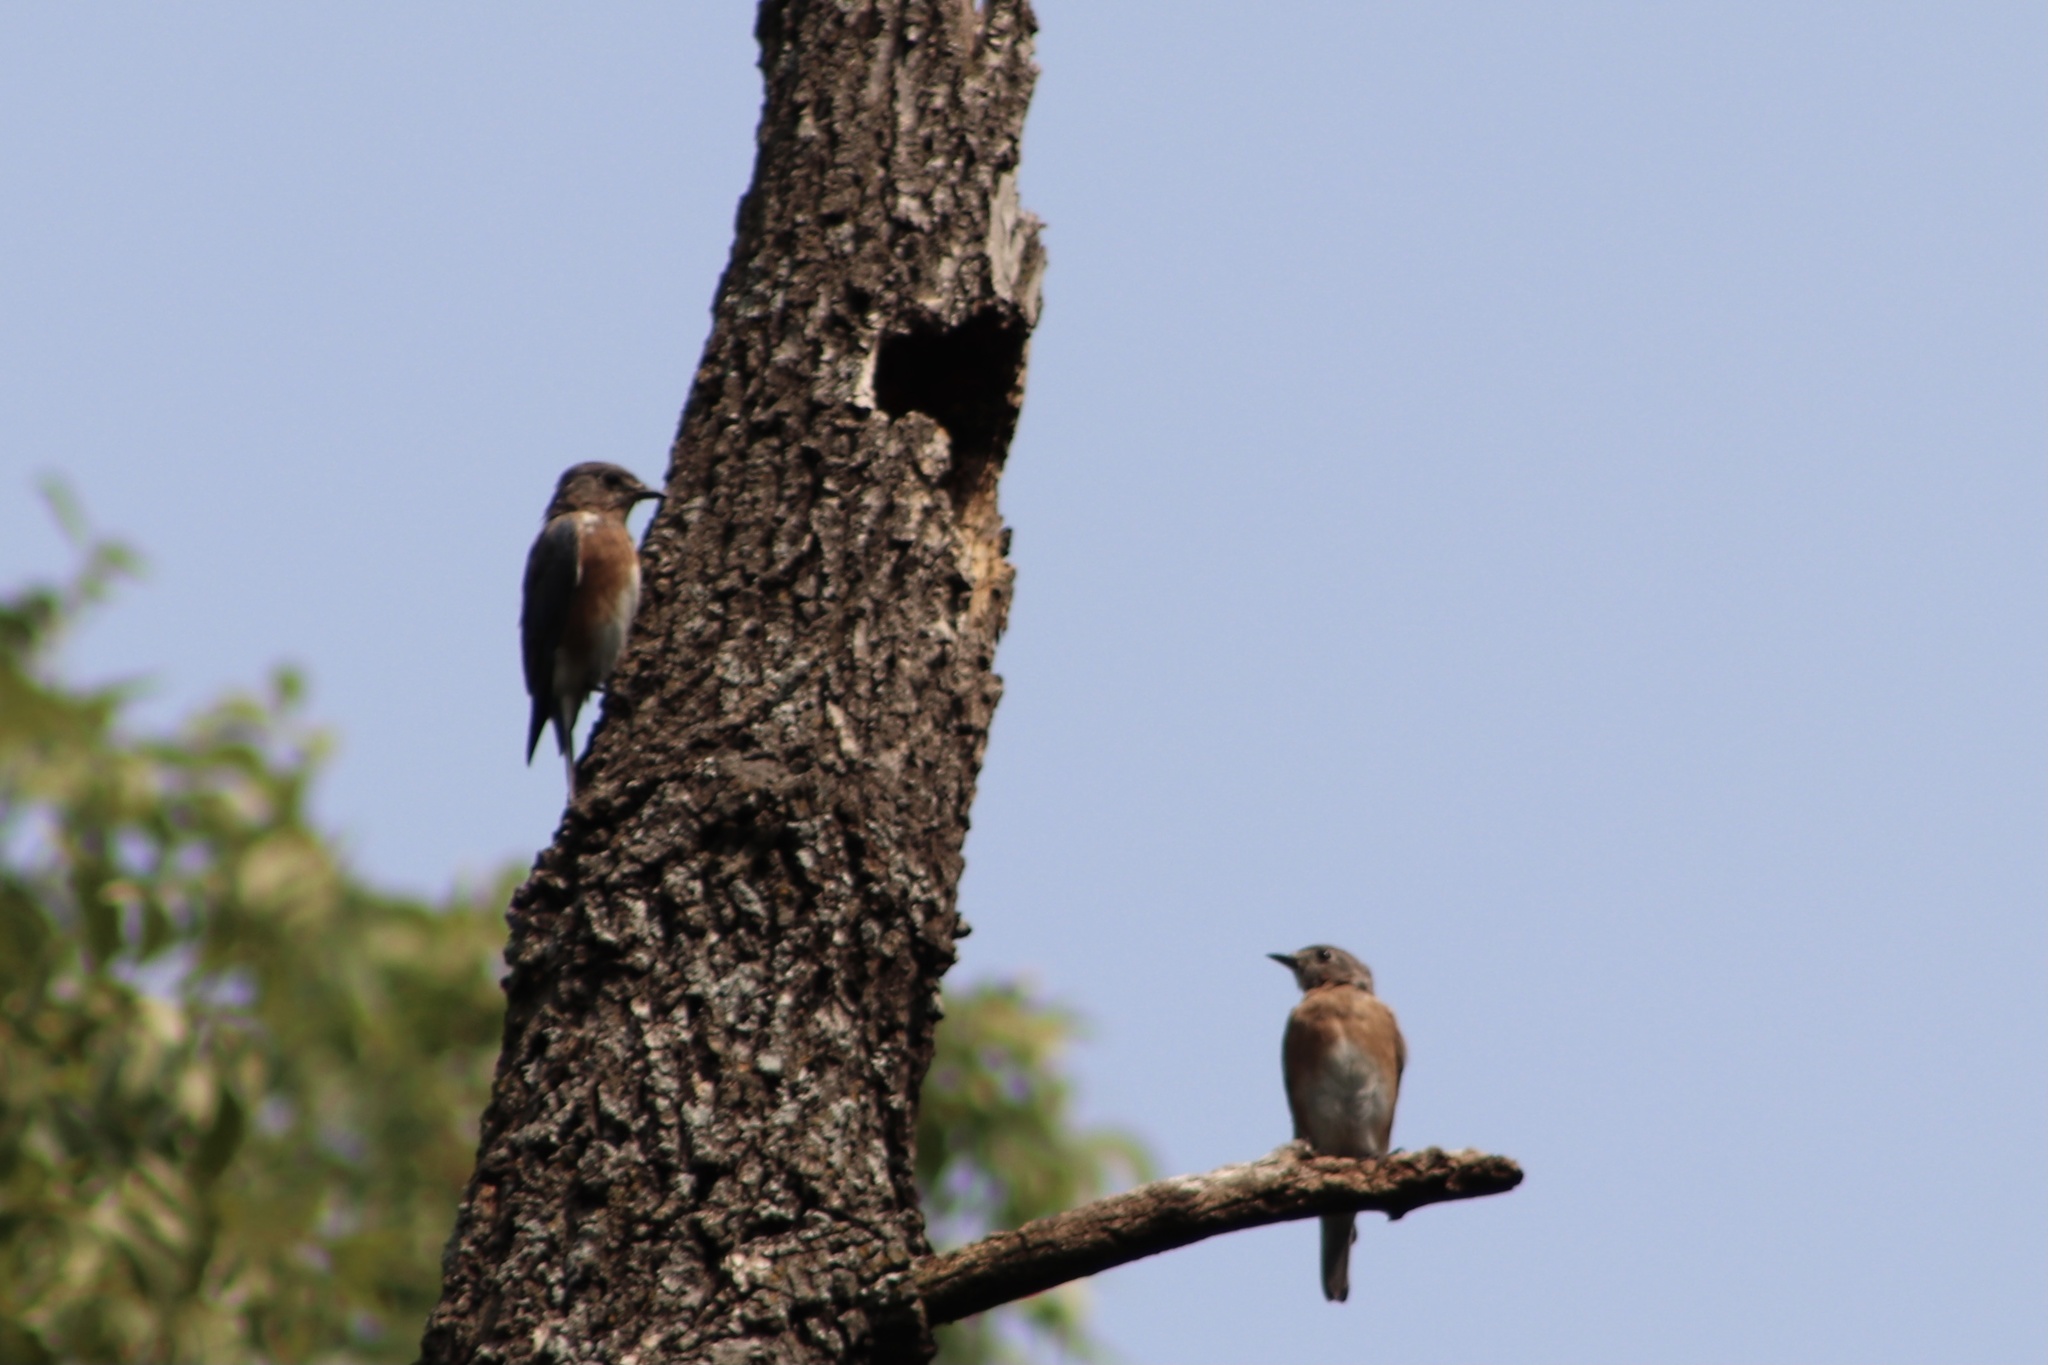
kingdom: Animalia
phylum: Chordata
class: Aves
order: Passeriformes
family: Turdidae
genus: Sialia
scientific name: Sialia sialis
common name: Eastern bluebird
